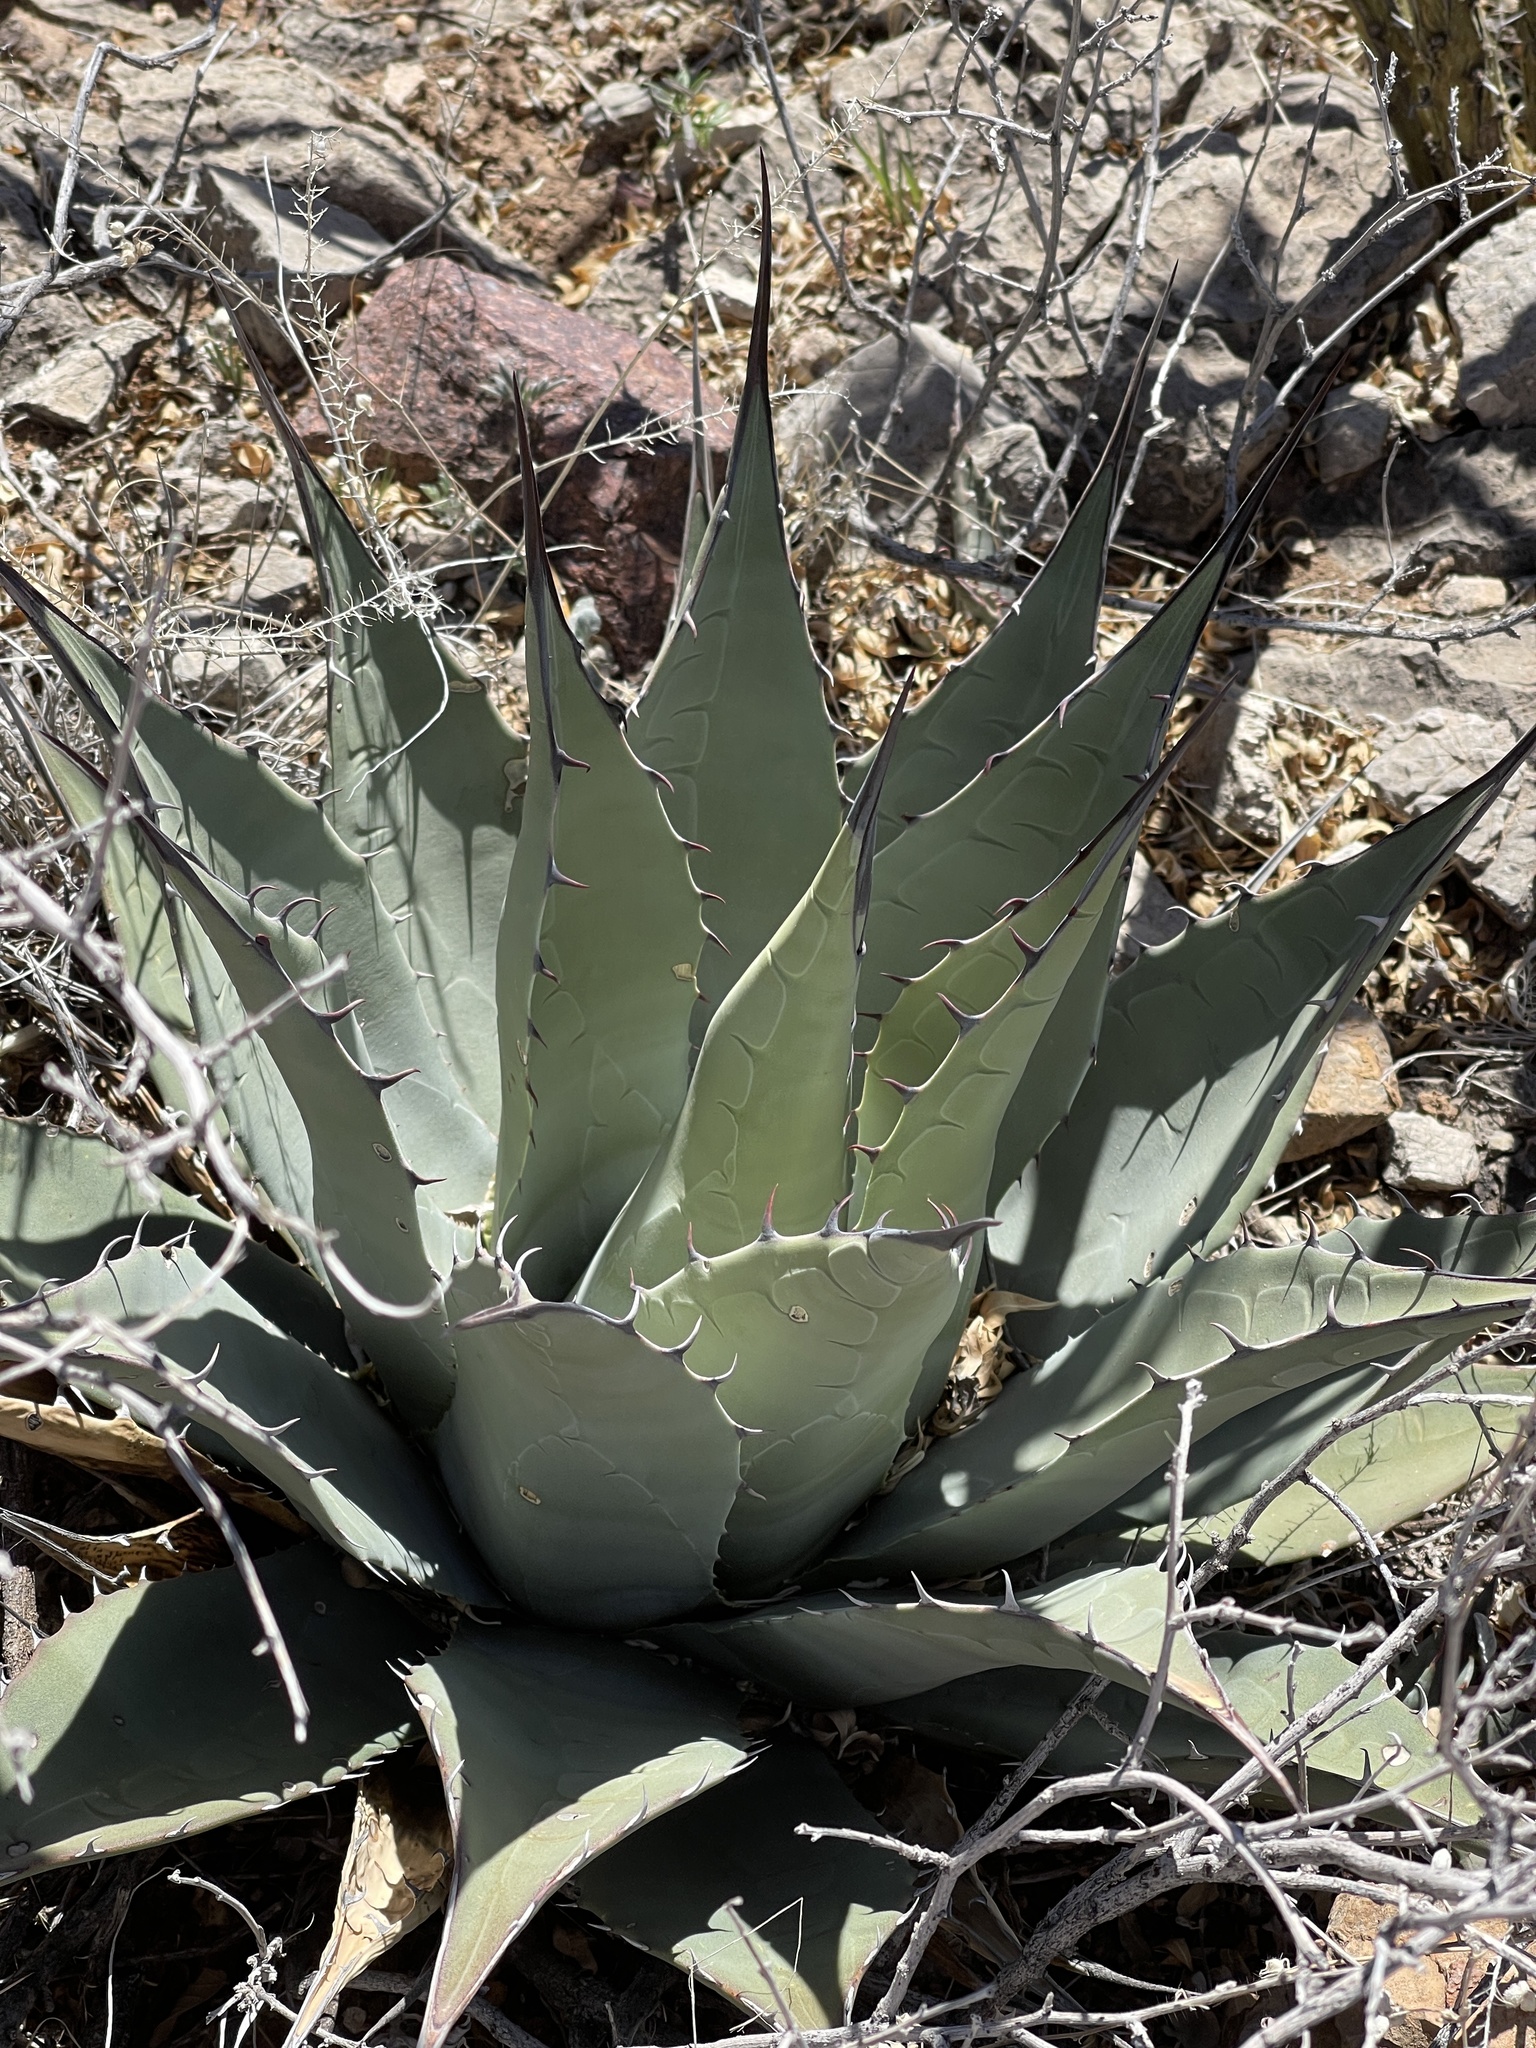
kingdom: Plantae
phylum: Tracheophyta
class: Liliopsida
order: Asparagales
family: Asparagaceae
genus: Agave
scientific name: Agave parryi
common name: Parry's agave
